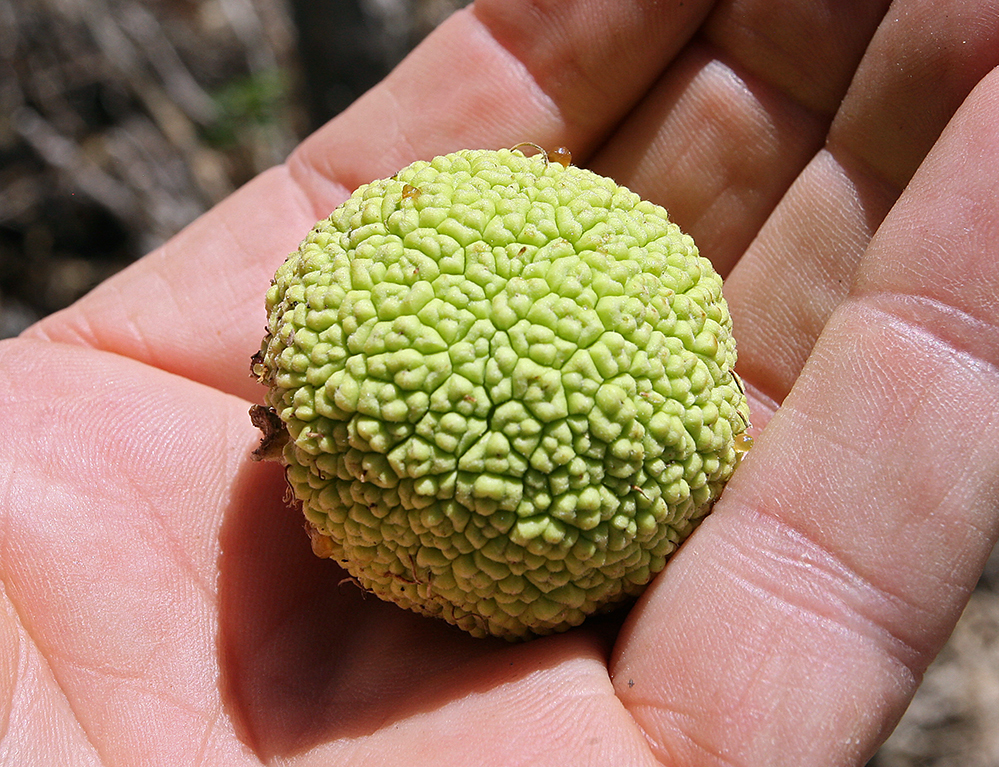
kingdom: Plantae
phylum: Tracheophyta
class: Magnoliopsida
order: Rosales
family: Moraceae
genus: Maclura
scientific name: Maclura pomifera
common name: Osage-orange
